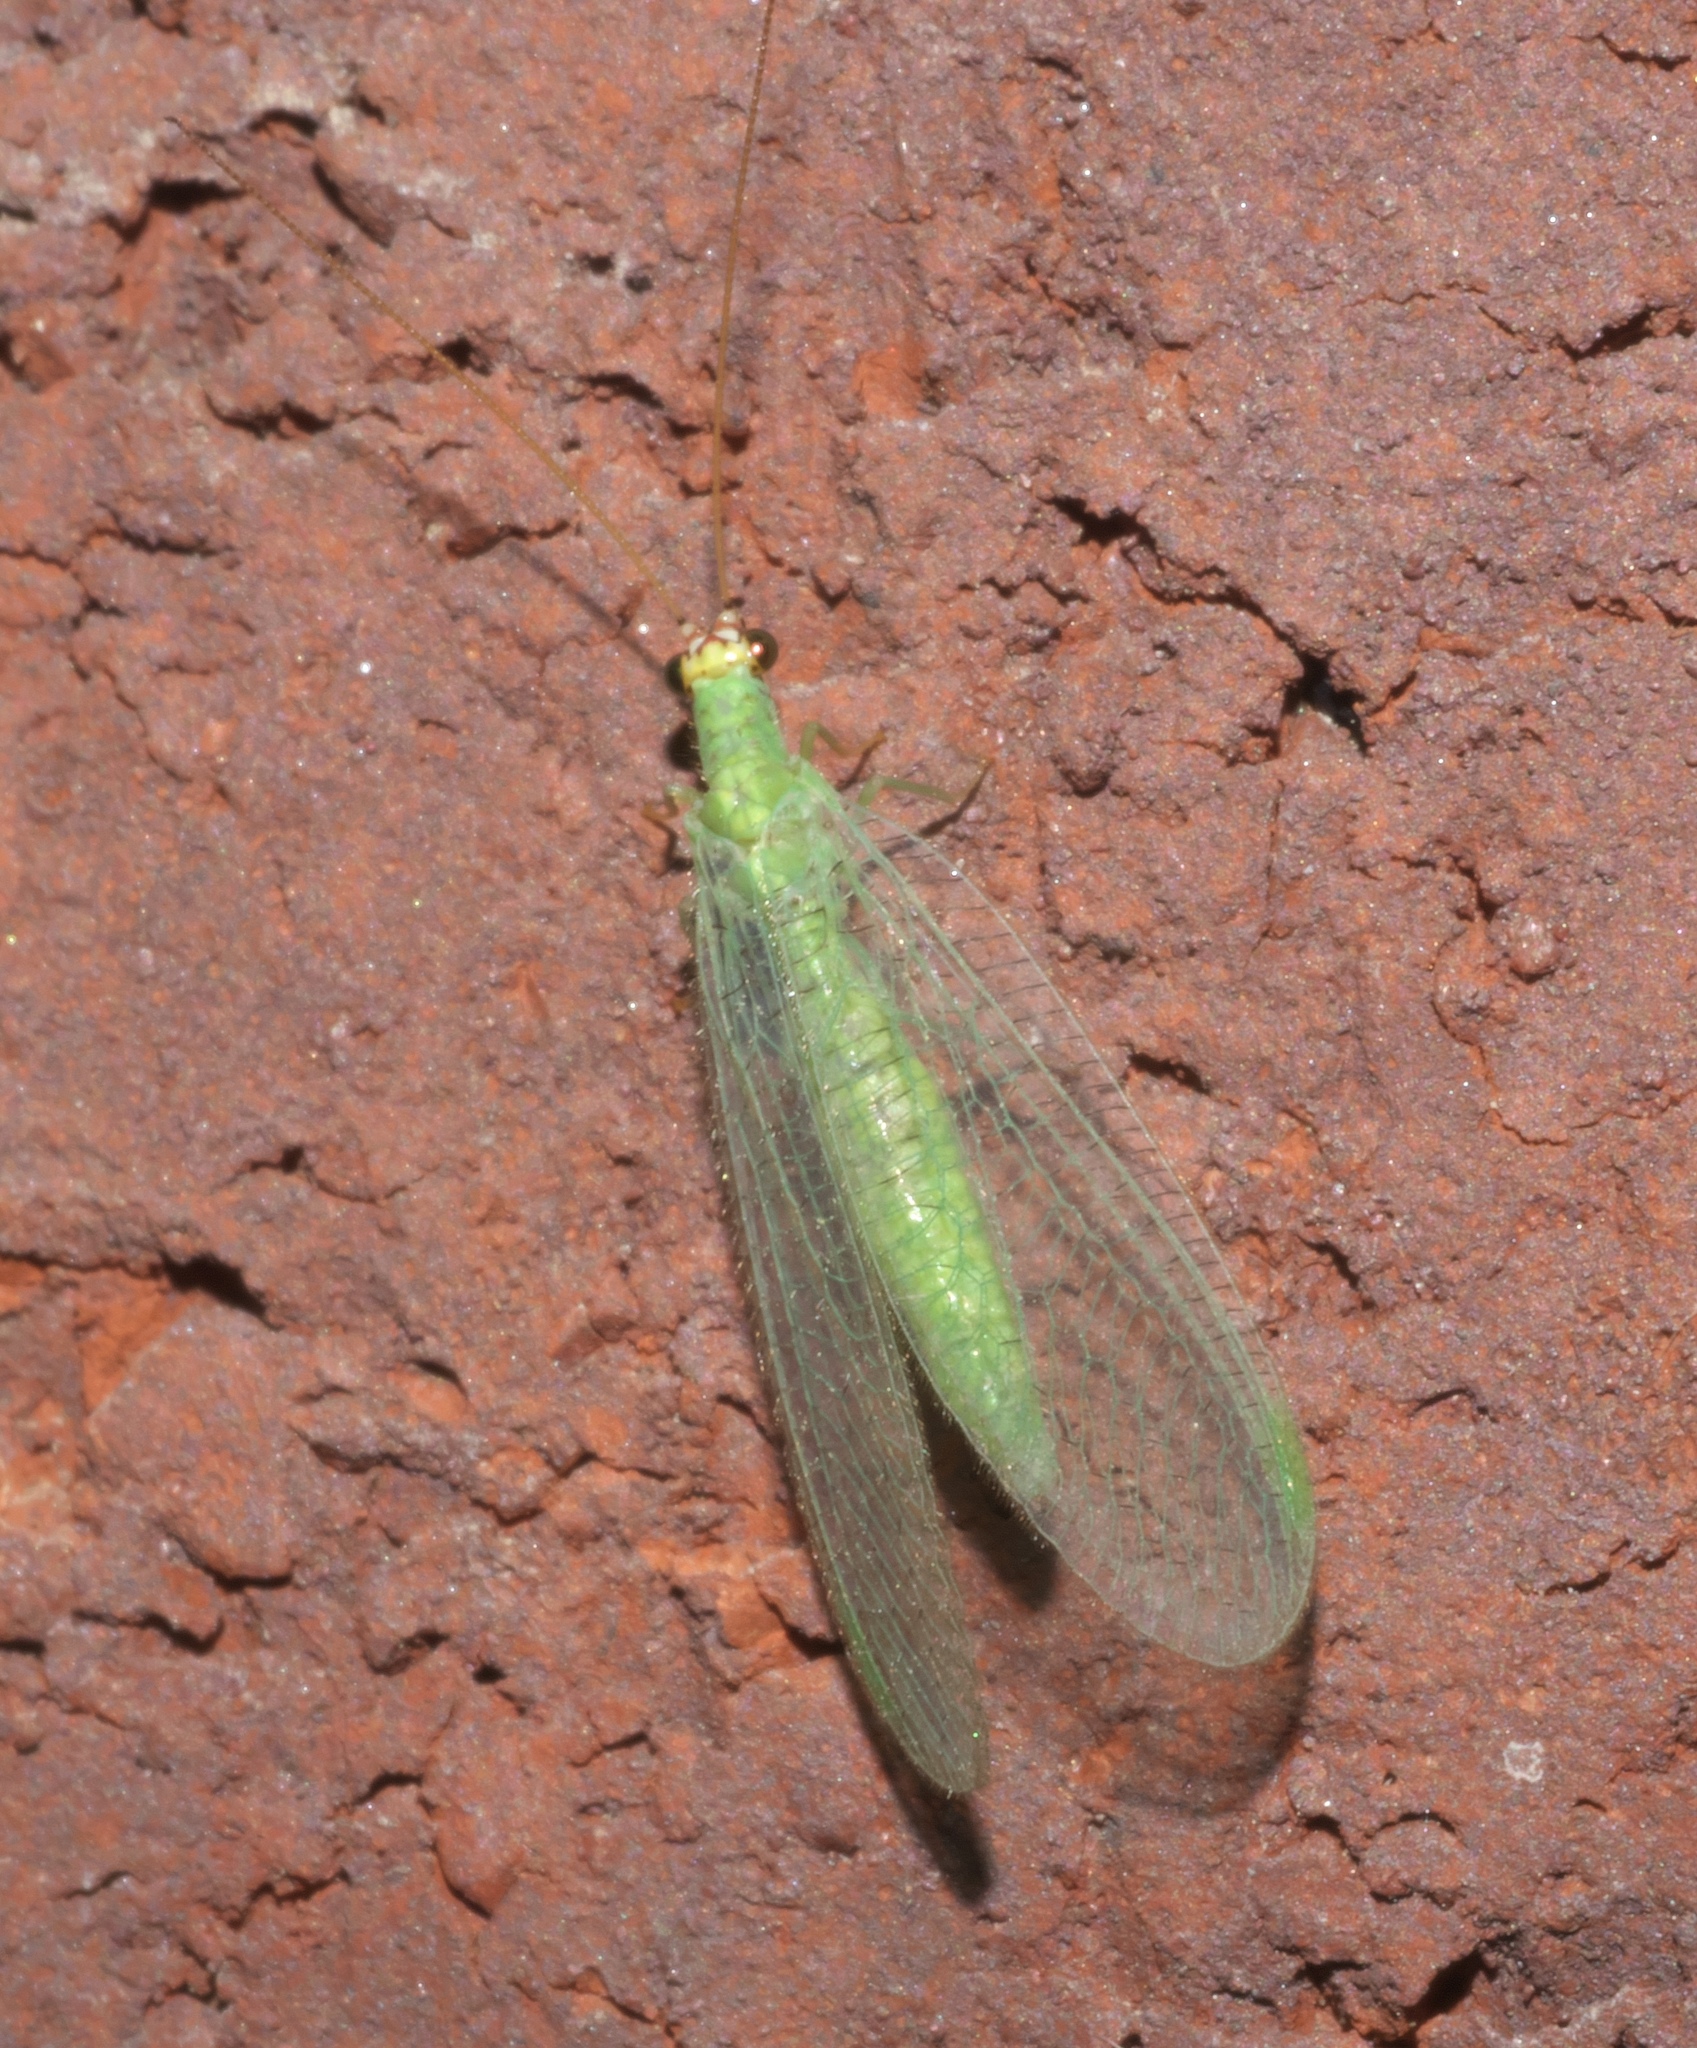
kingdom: Animalia
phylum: Arthropoda
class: Insecta
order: Neuroptera
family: Chrysopidae
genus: Chrysopa
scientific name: Chrysopa oculata
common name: Golden-eyed lacewing
